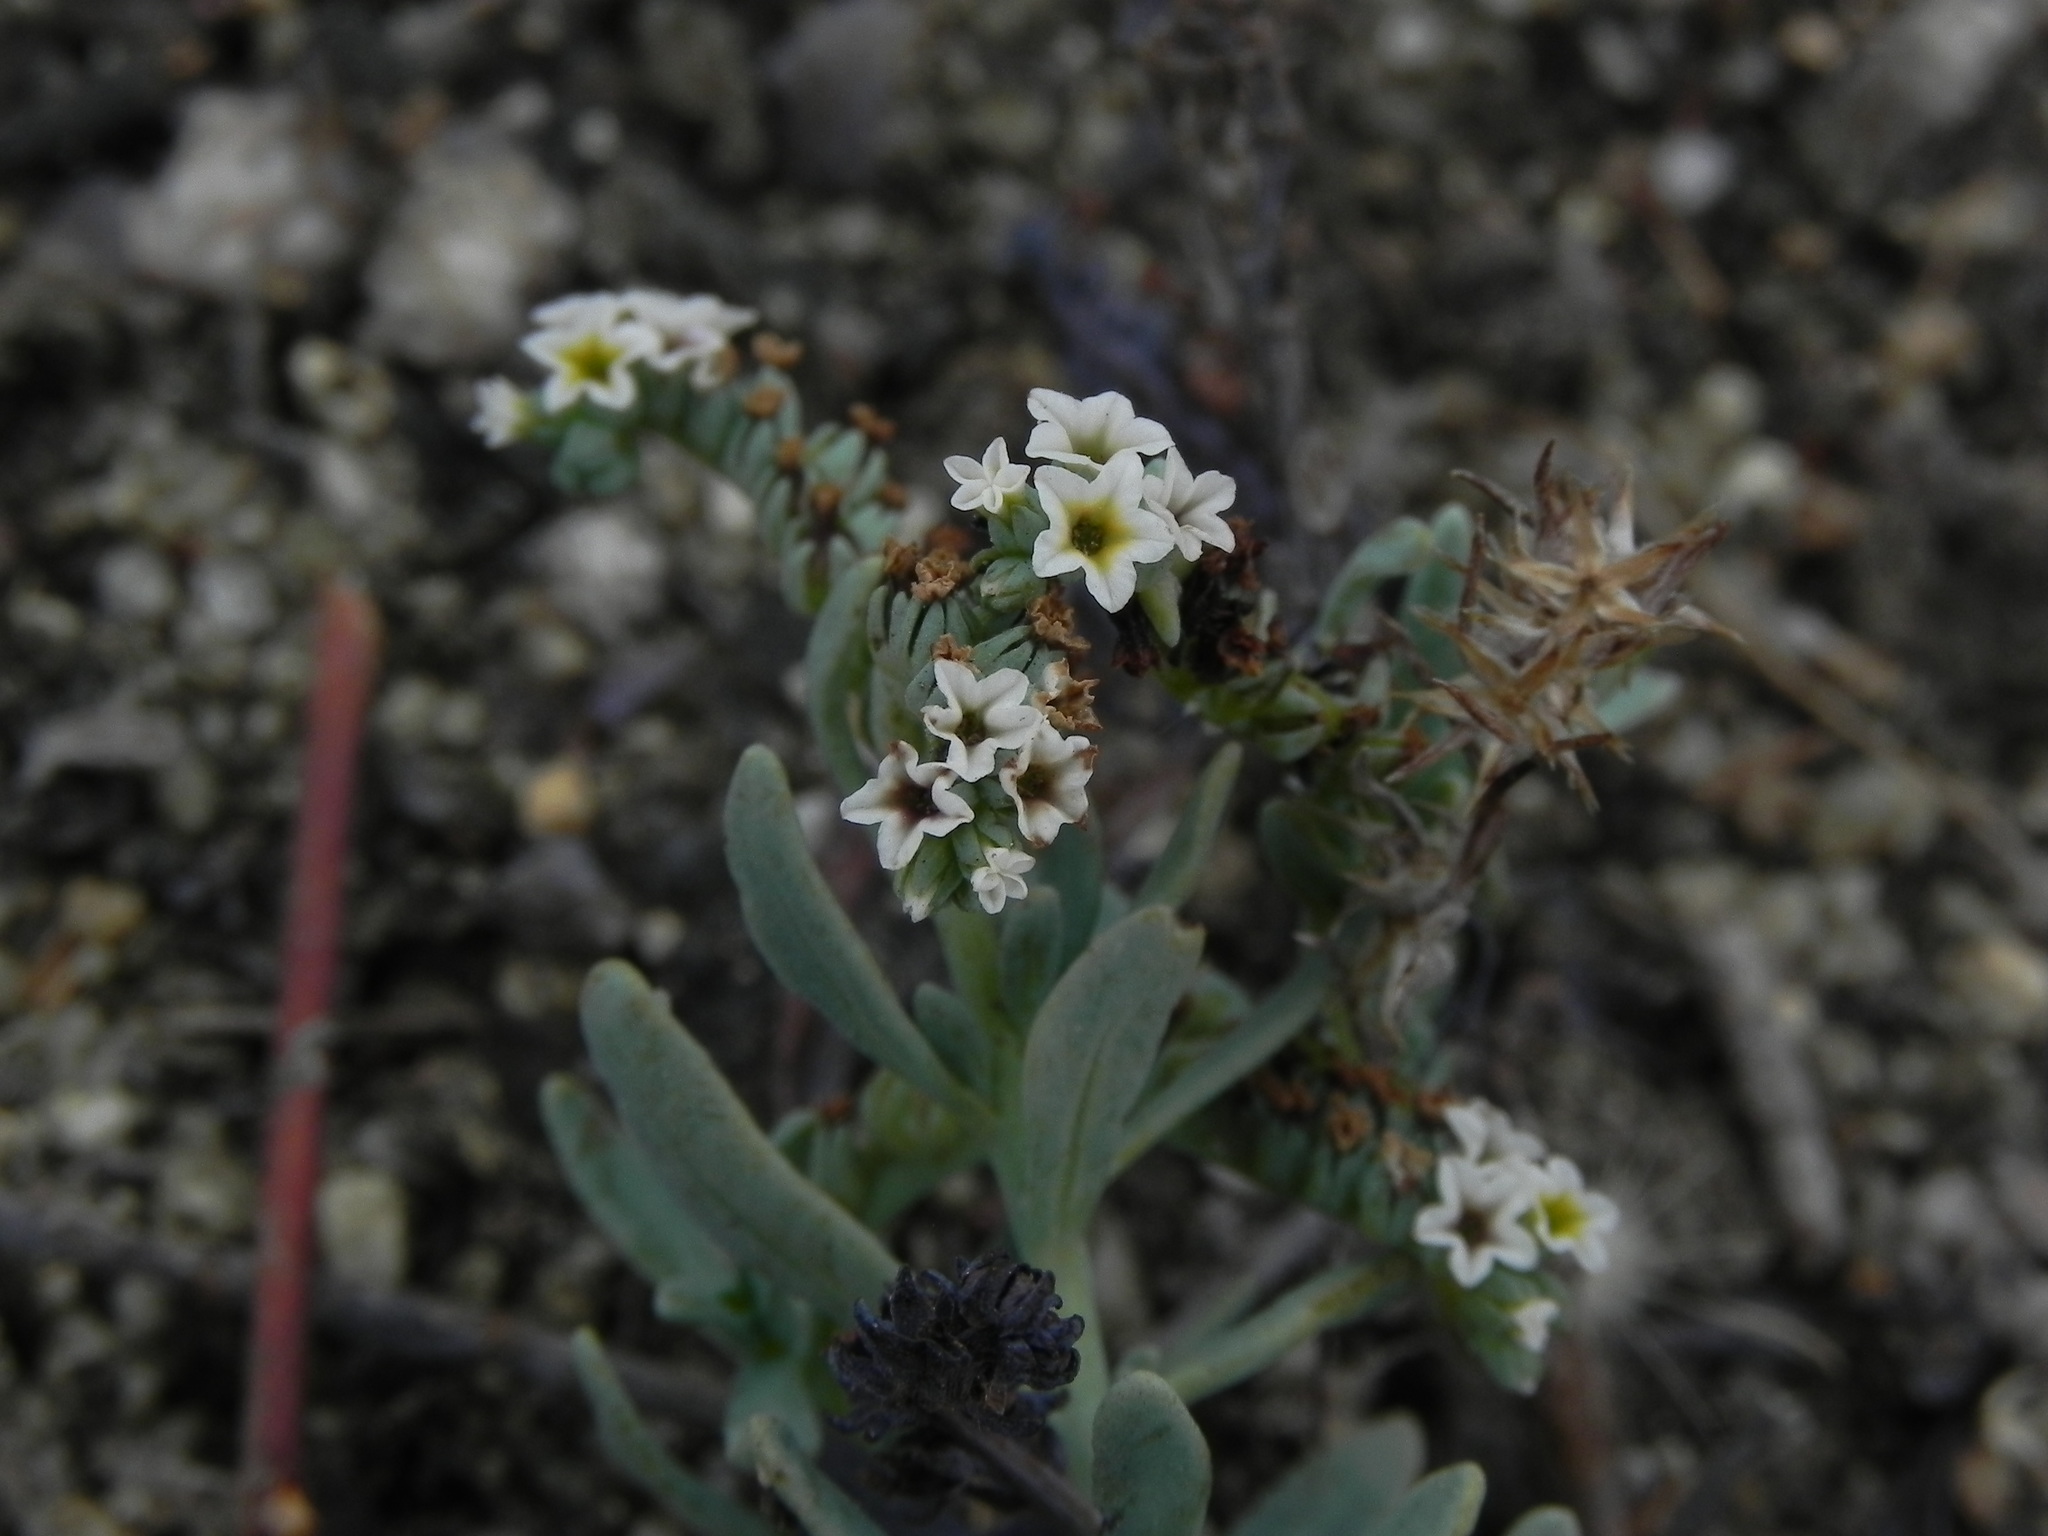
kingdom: Plantae
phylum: Tracheophyta
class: Magnoliopsida
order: Boraginales
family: Heliotropiaceae
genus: Heliotropium
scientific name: Heliotropium curassavicum
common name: Seaside heliotrope
